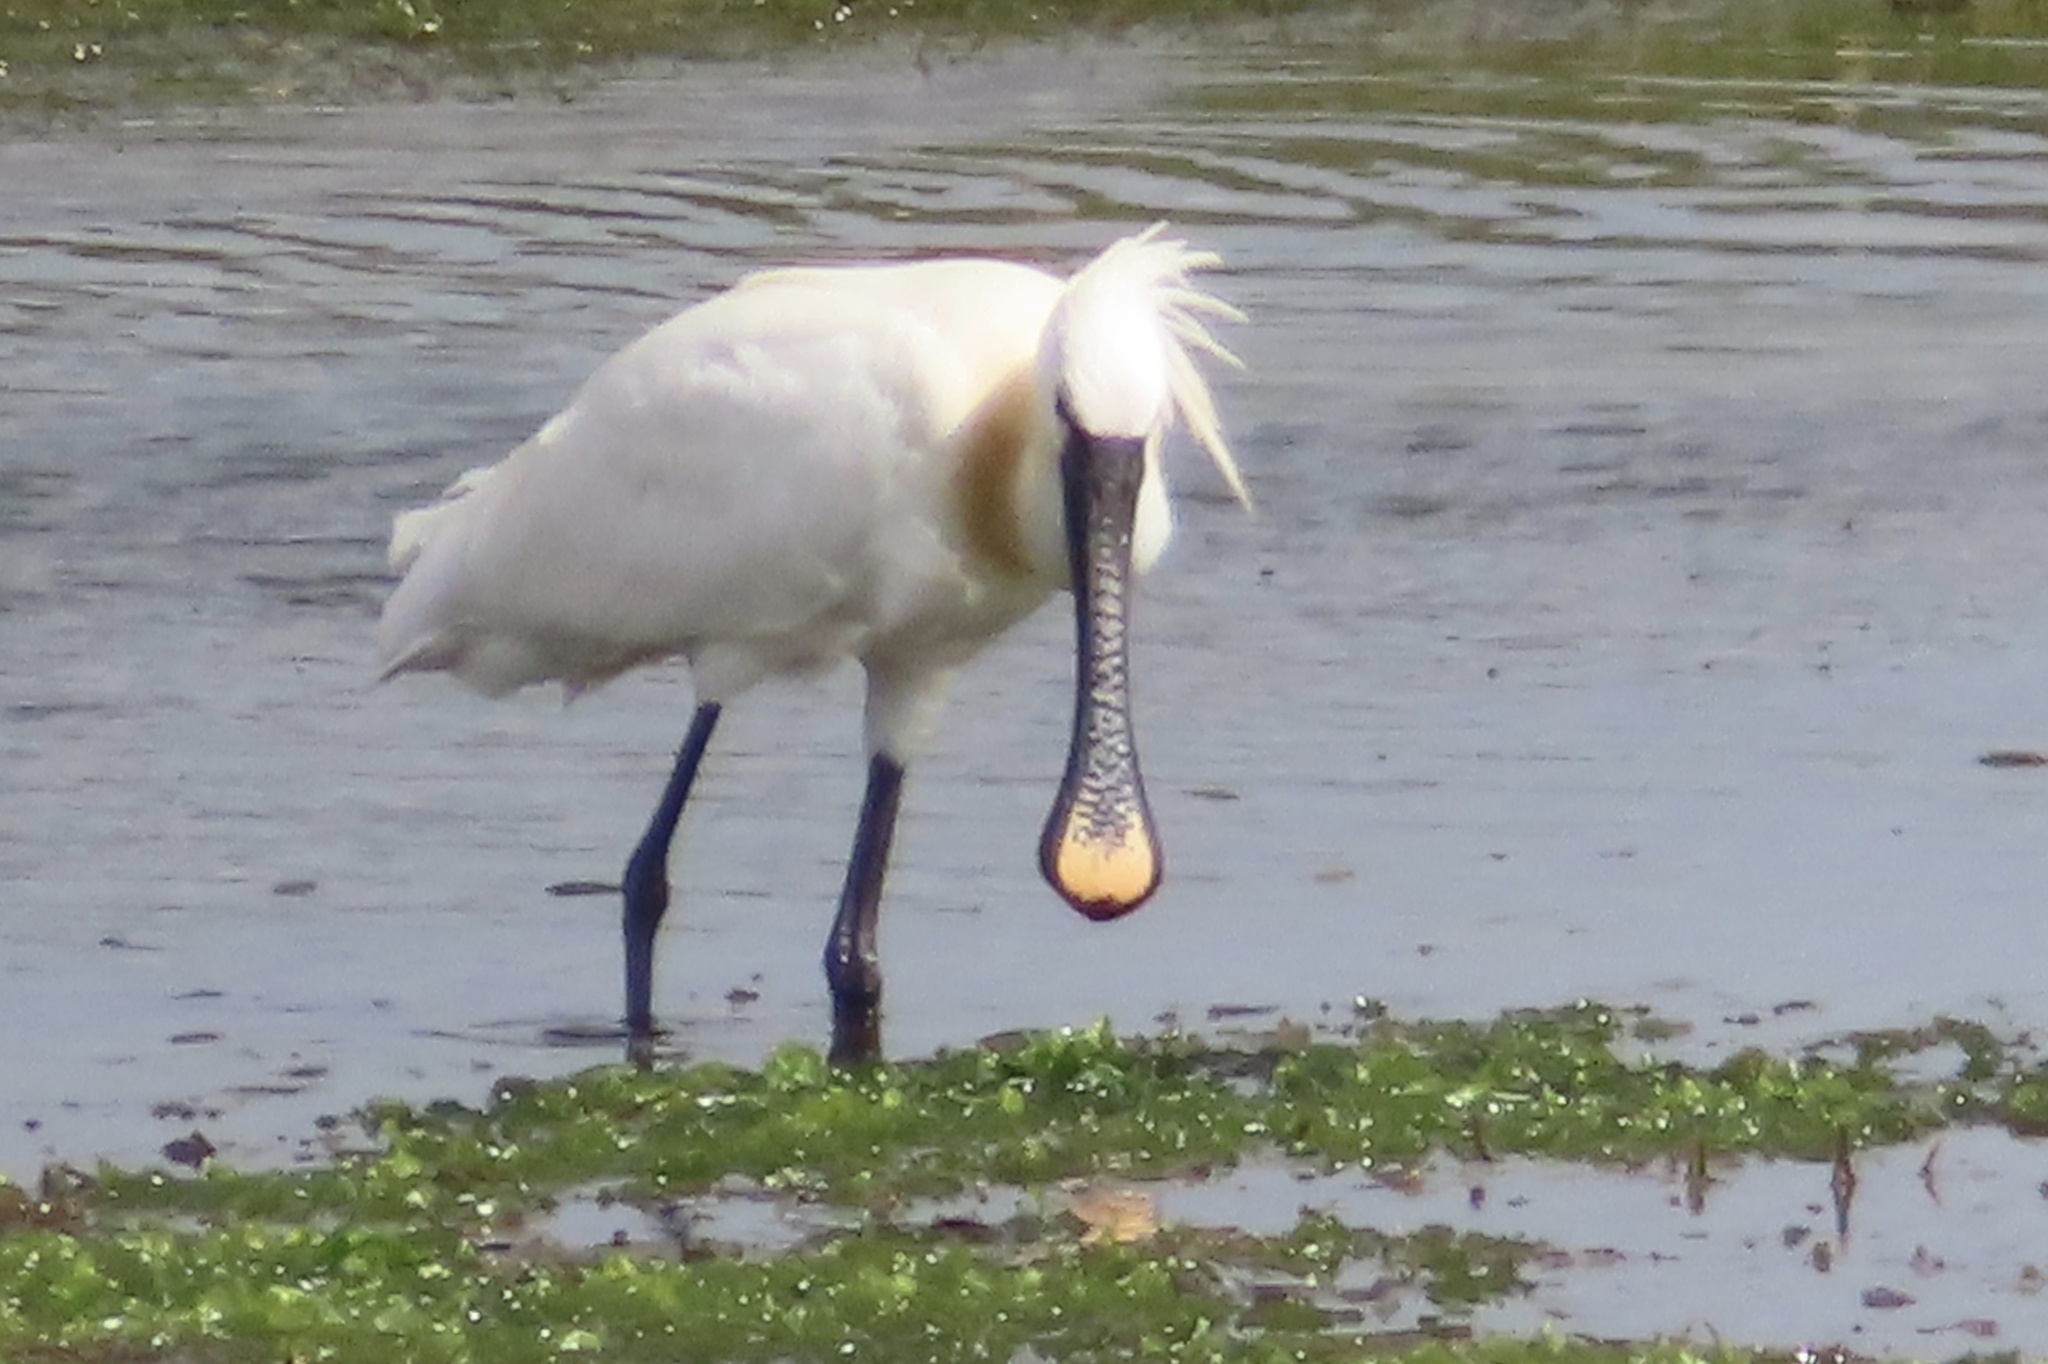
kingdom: Animalia
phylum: Chordata
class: Aves
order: Pelecaniformes
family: Threskiornithidae
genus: Platalea
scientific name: Platalea leucorodia
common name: Eurasian spoonbill
